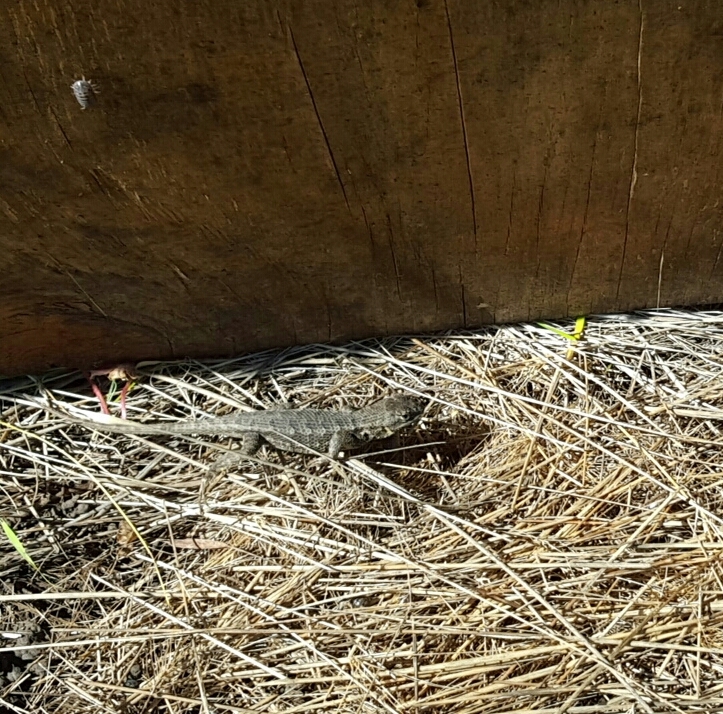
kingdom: Animalia
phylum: Chordata
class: Squamata
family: Phrynosomatidae
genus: Sceloporus
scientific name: Sceloporus occidentalis
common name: Western fence lizard
